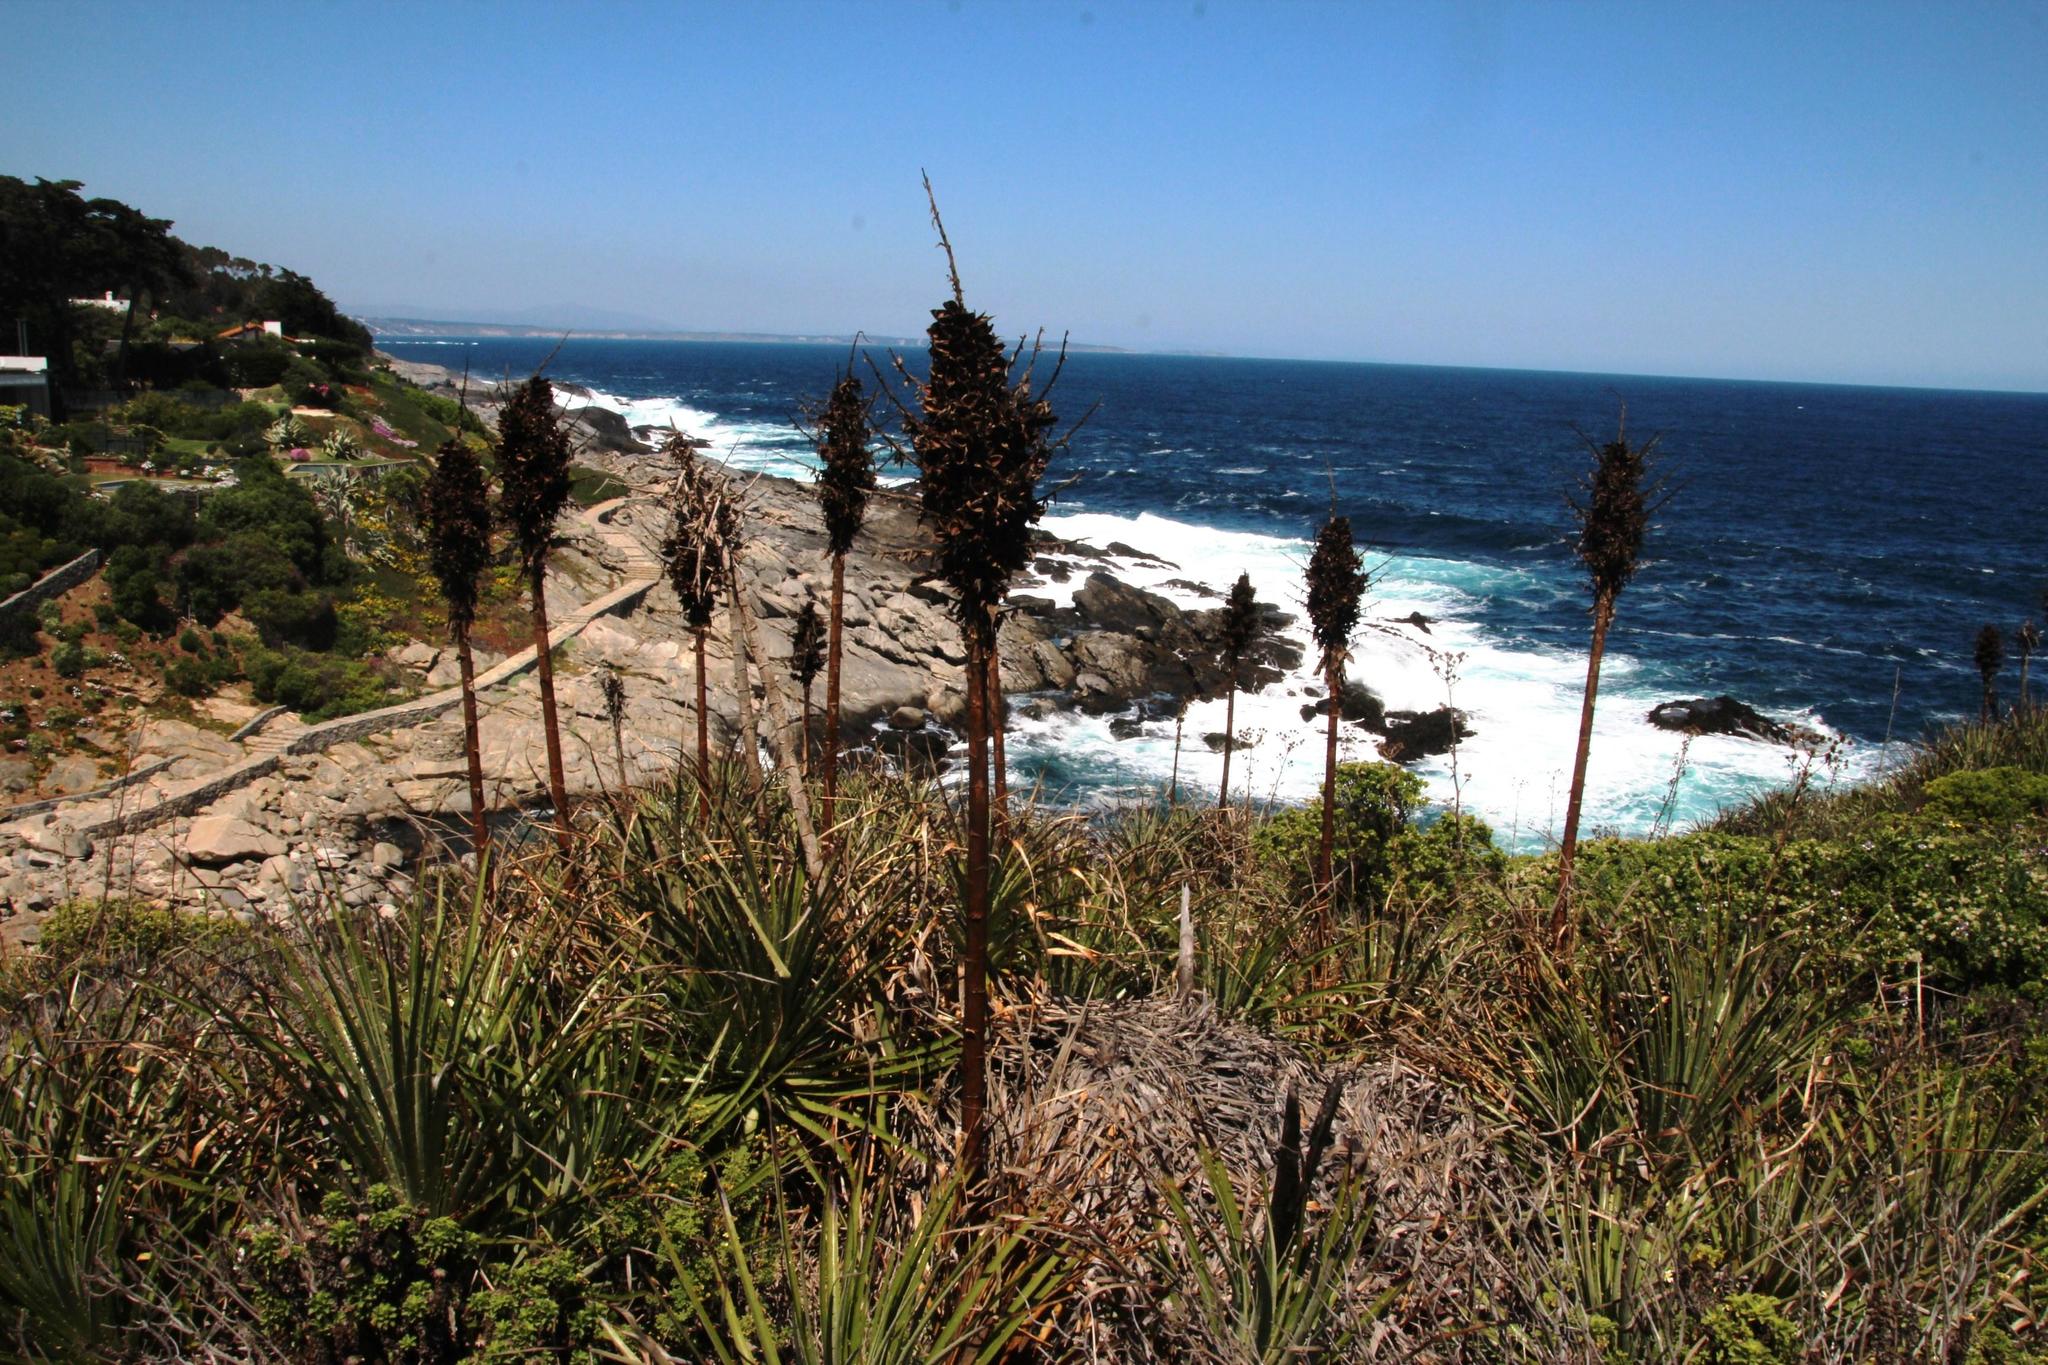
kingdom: Plantae
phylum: Tracheophyta
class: Liliopsida
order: Poales
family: Bromeliaceae
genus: Puya
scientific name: Puya chilensis
